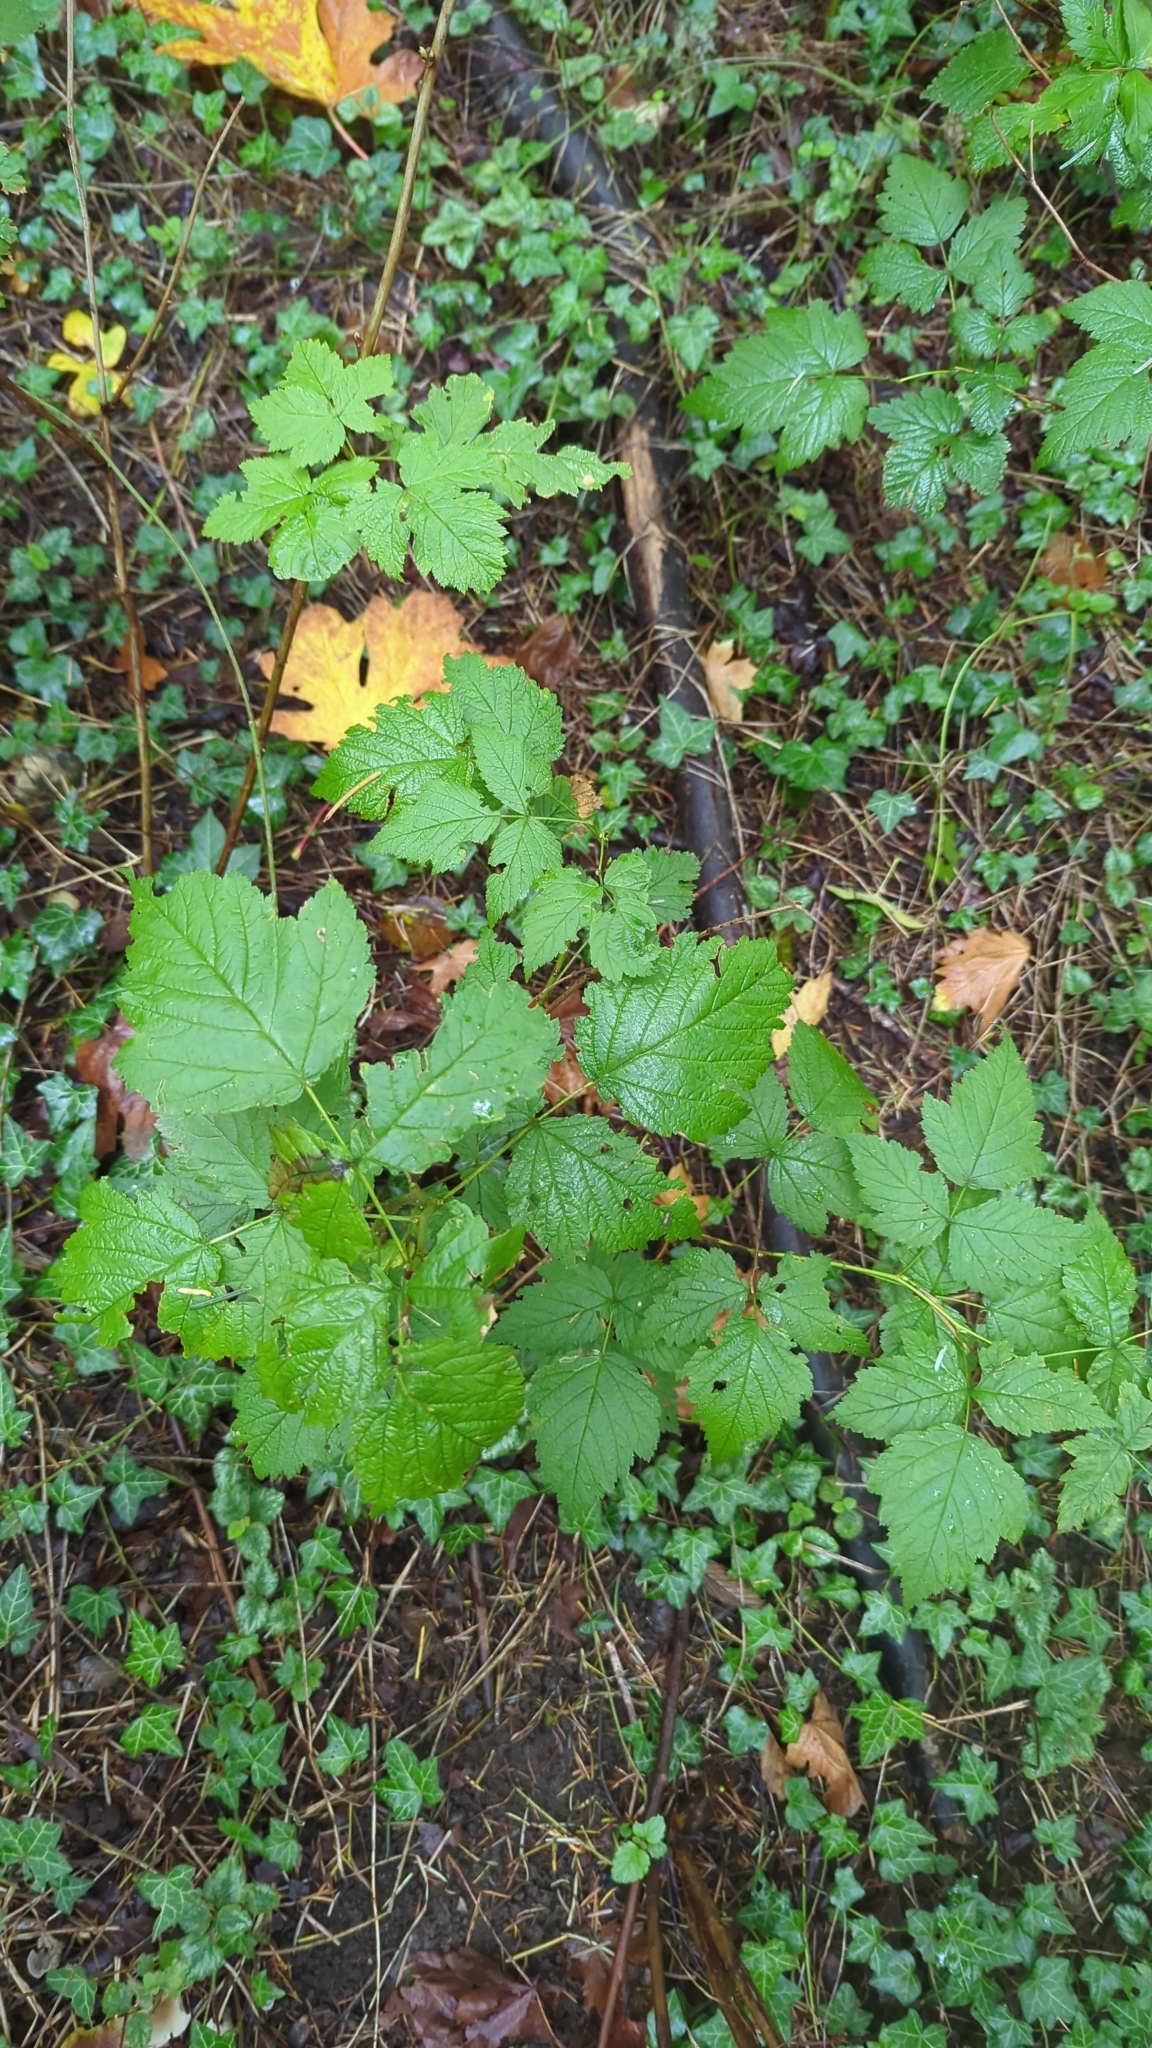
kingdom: Plantae
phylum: Tracheophyta
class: Magnoliopsida
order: Rosales
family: Rosaceae
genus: Rubus
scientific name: Rubus spectabilis
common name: Salmonberry
